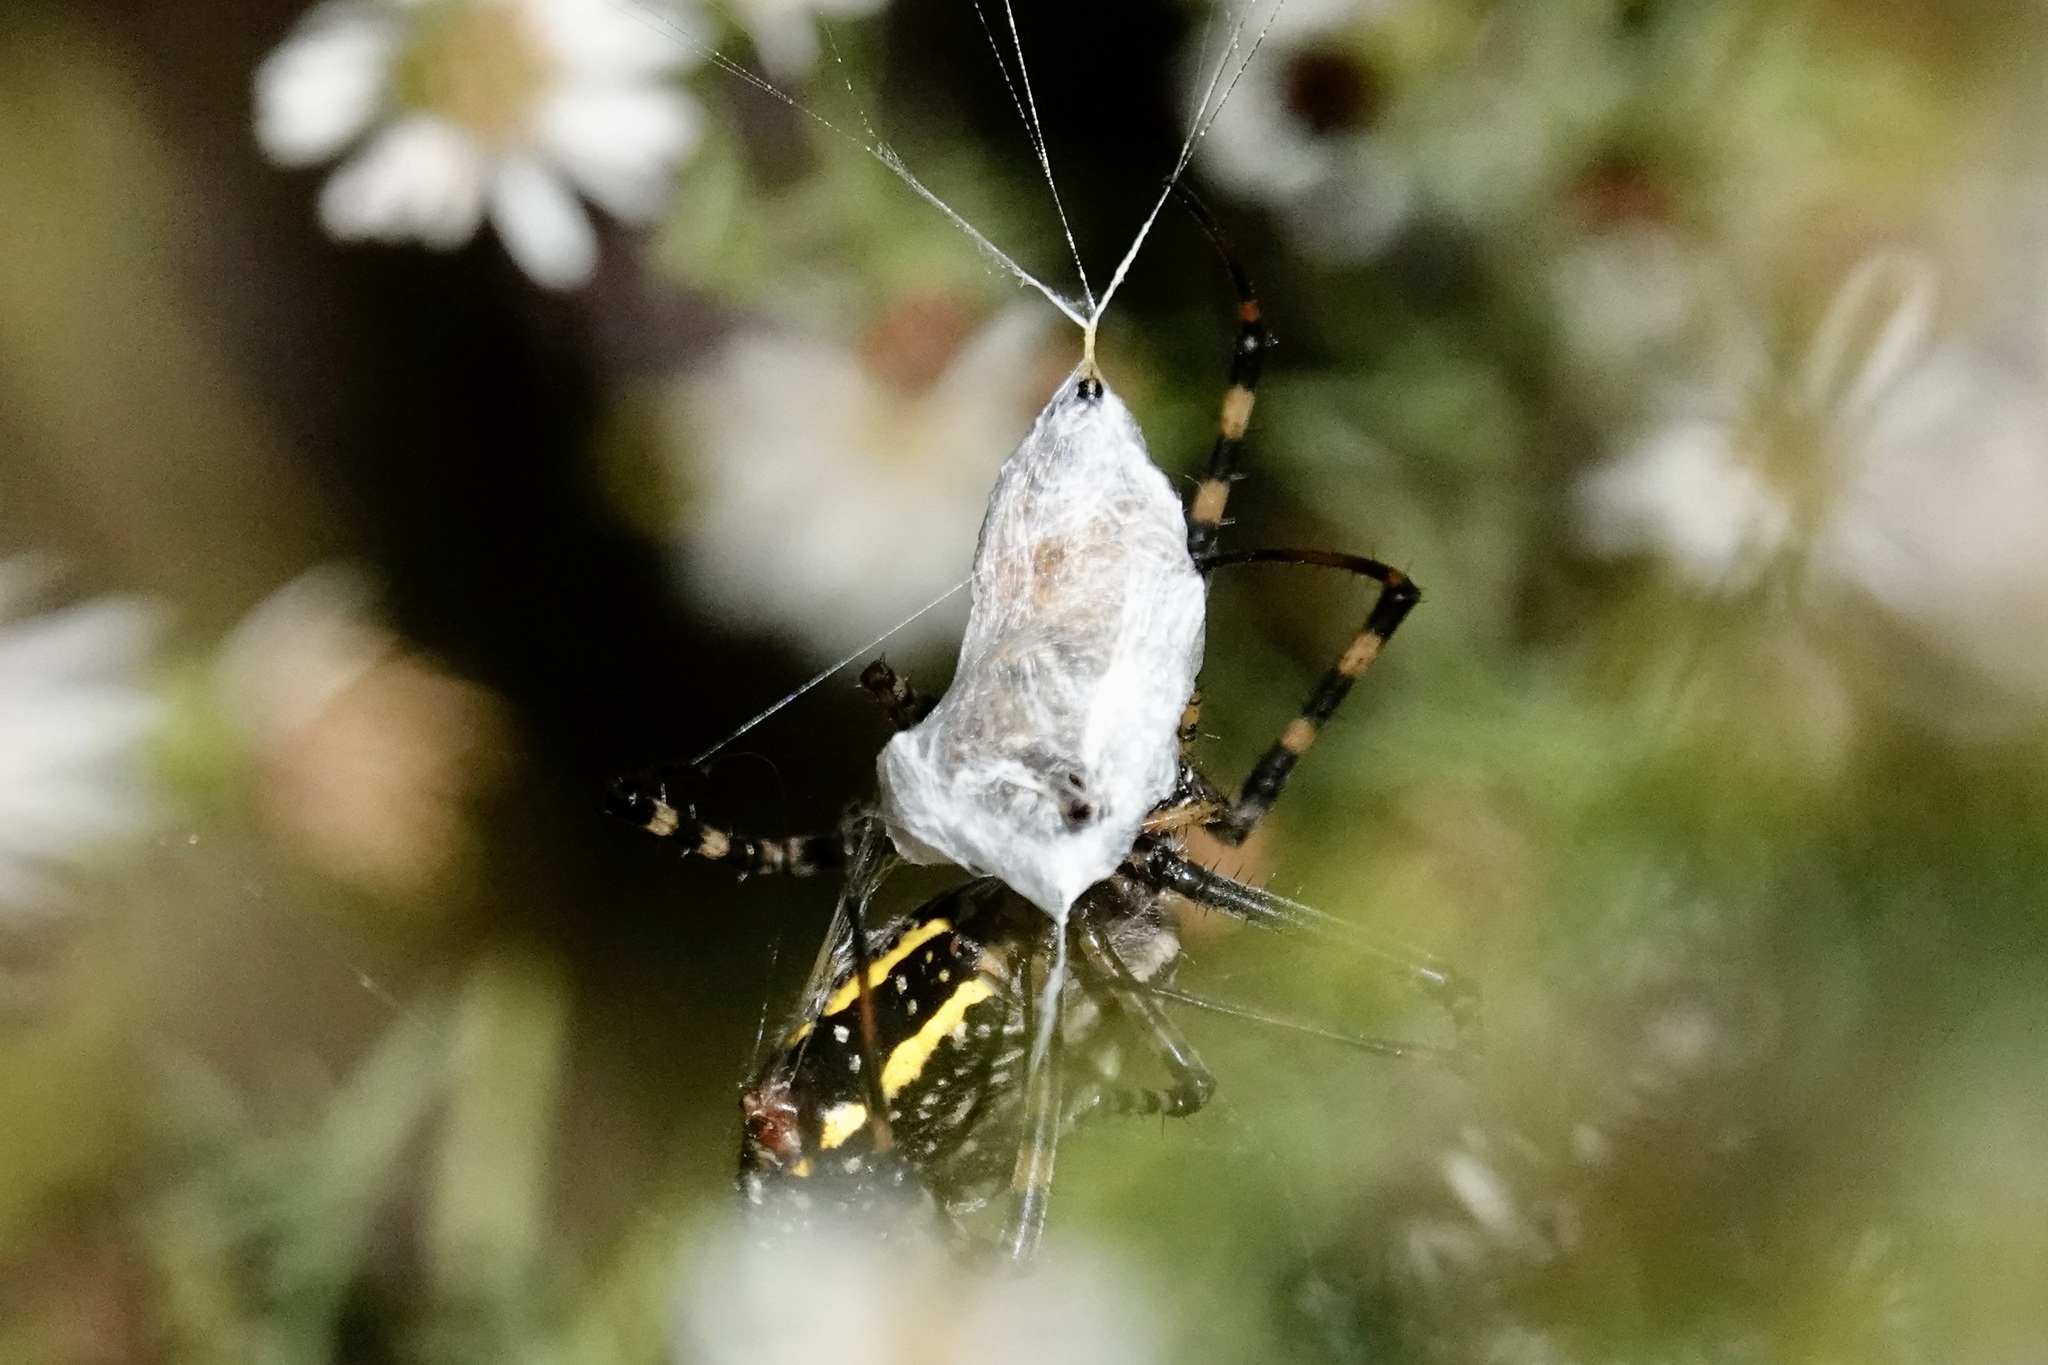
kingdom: Animalia
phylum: Arthropoda
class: Arachnida
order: Araneae
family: Araneidae
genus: Argiope
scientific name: Argiope trifasciata
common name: Banded garden spider
